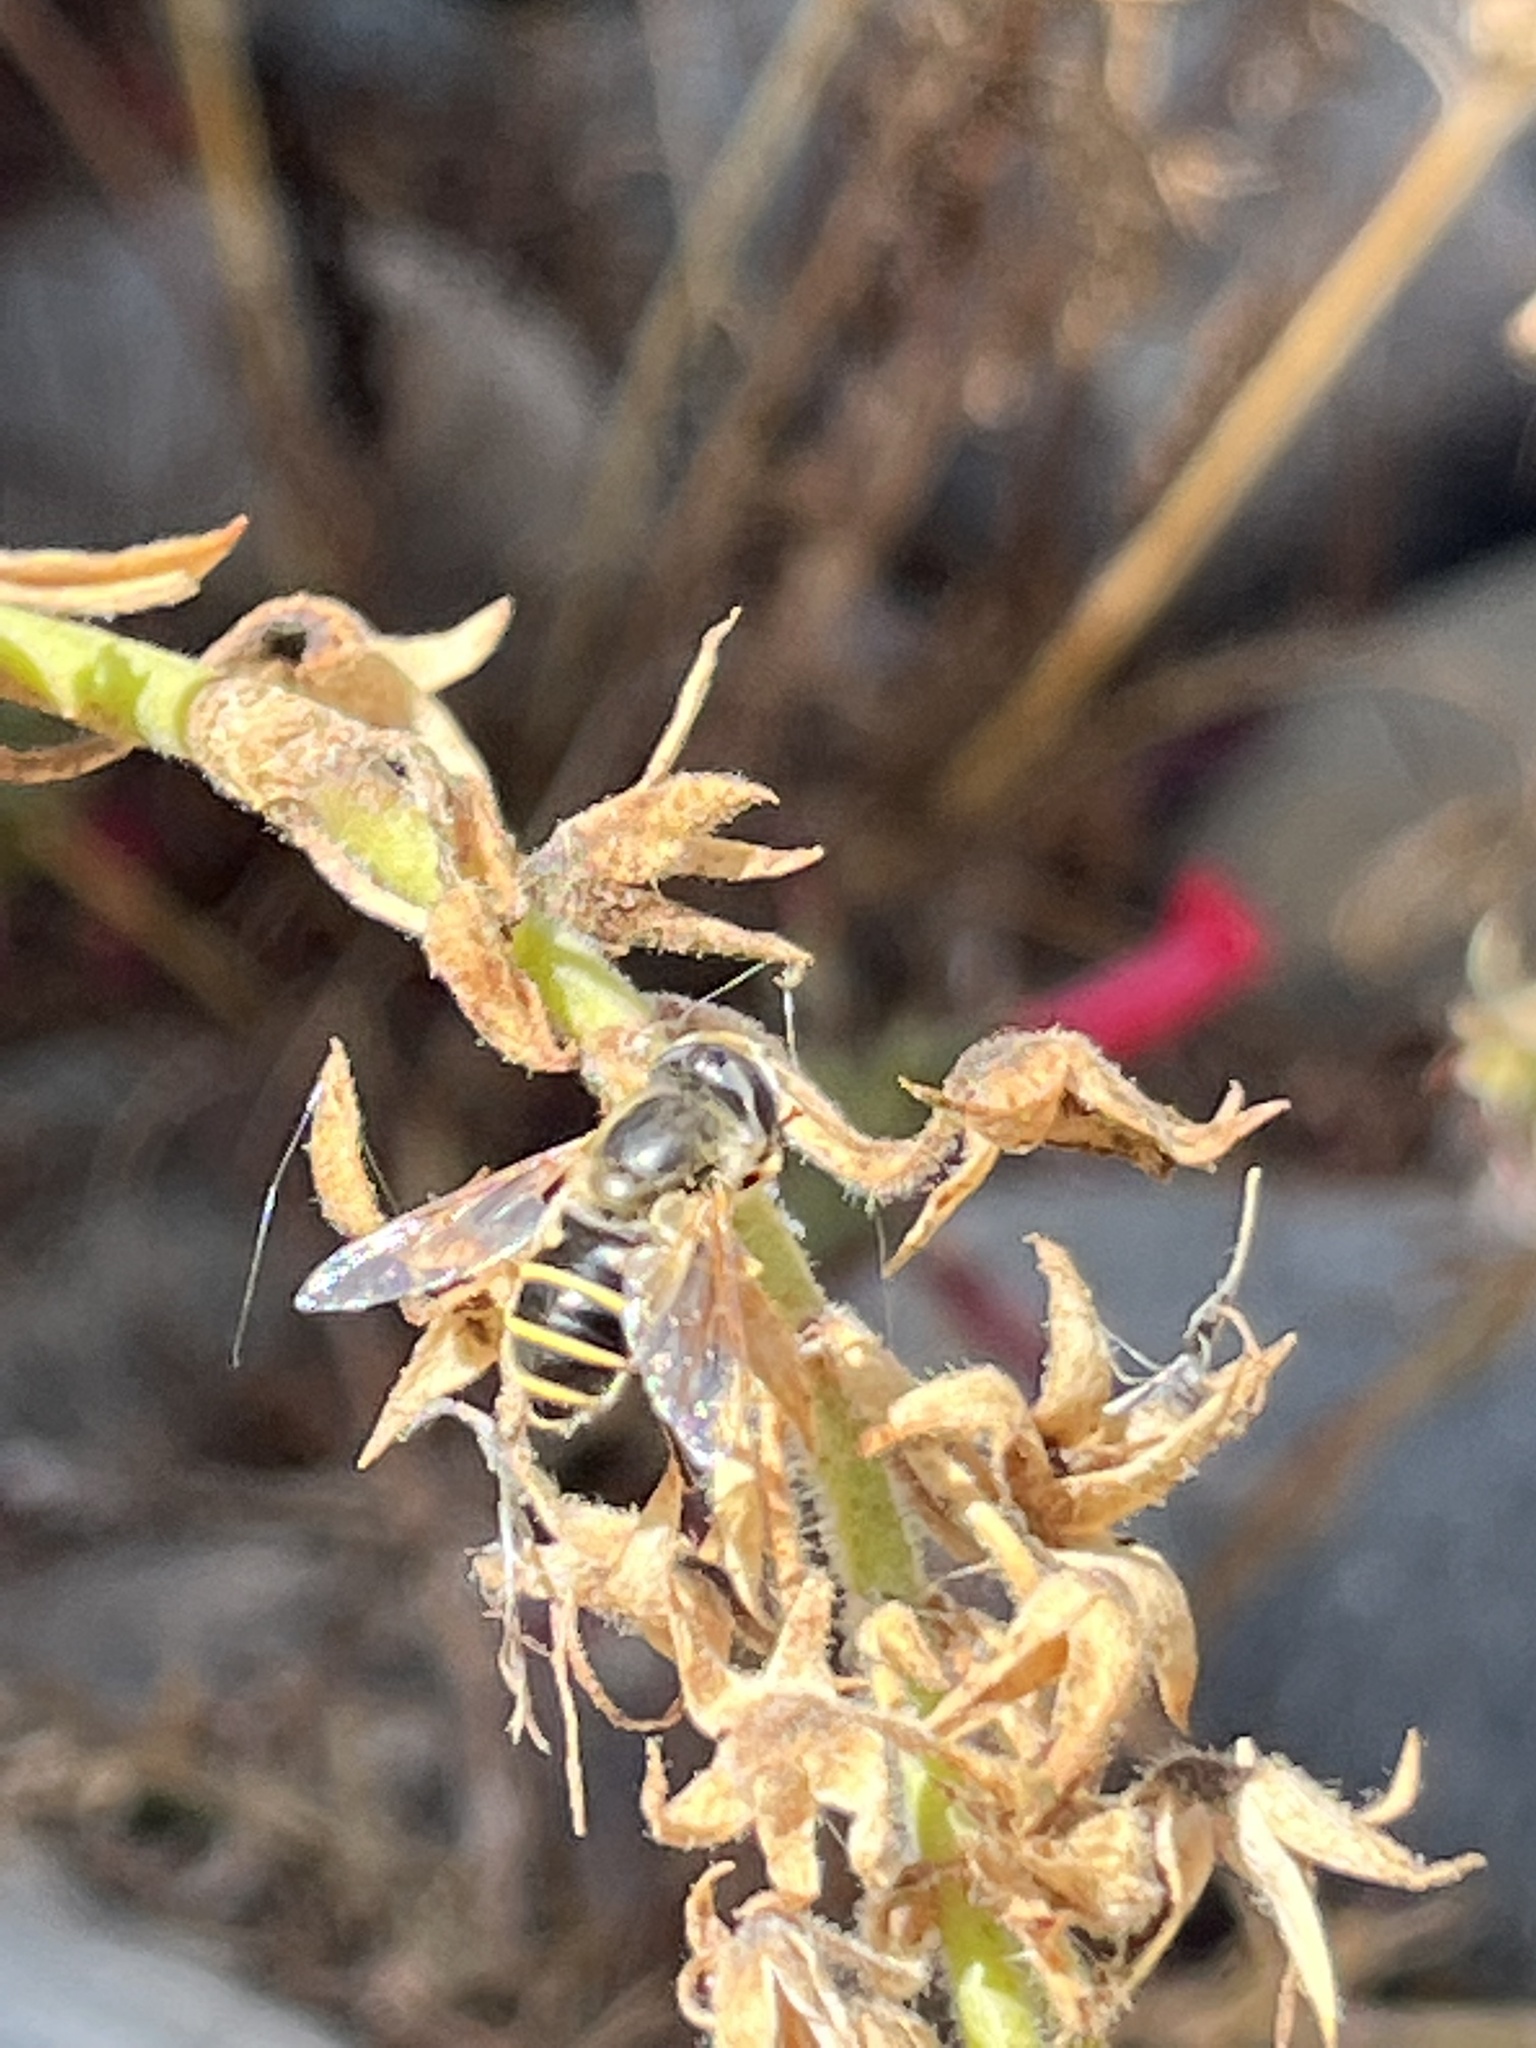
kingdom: Animalia
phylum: Arthropoda
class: Insecta
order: Diptera
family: Syrphidae
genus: Eristalis
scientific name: Eristalis hirta
